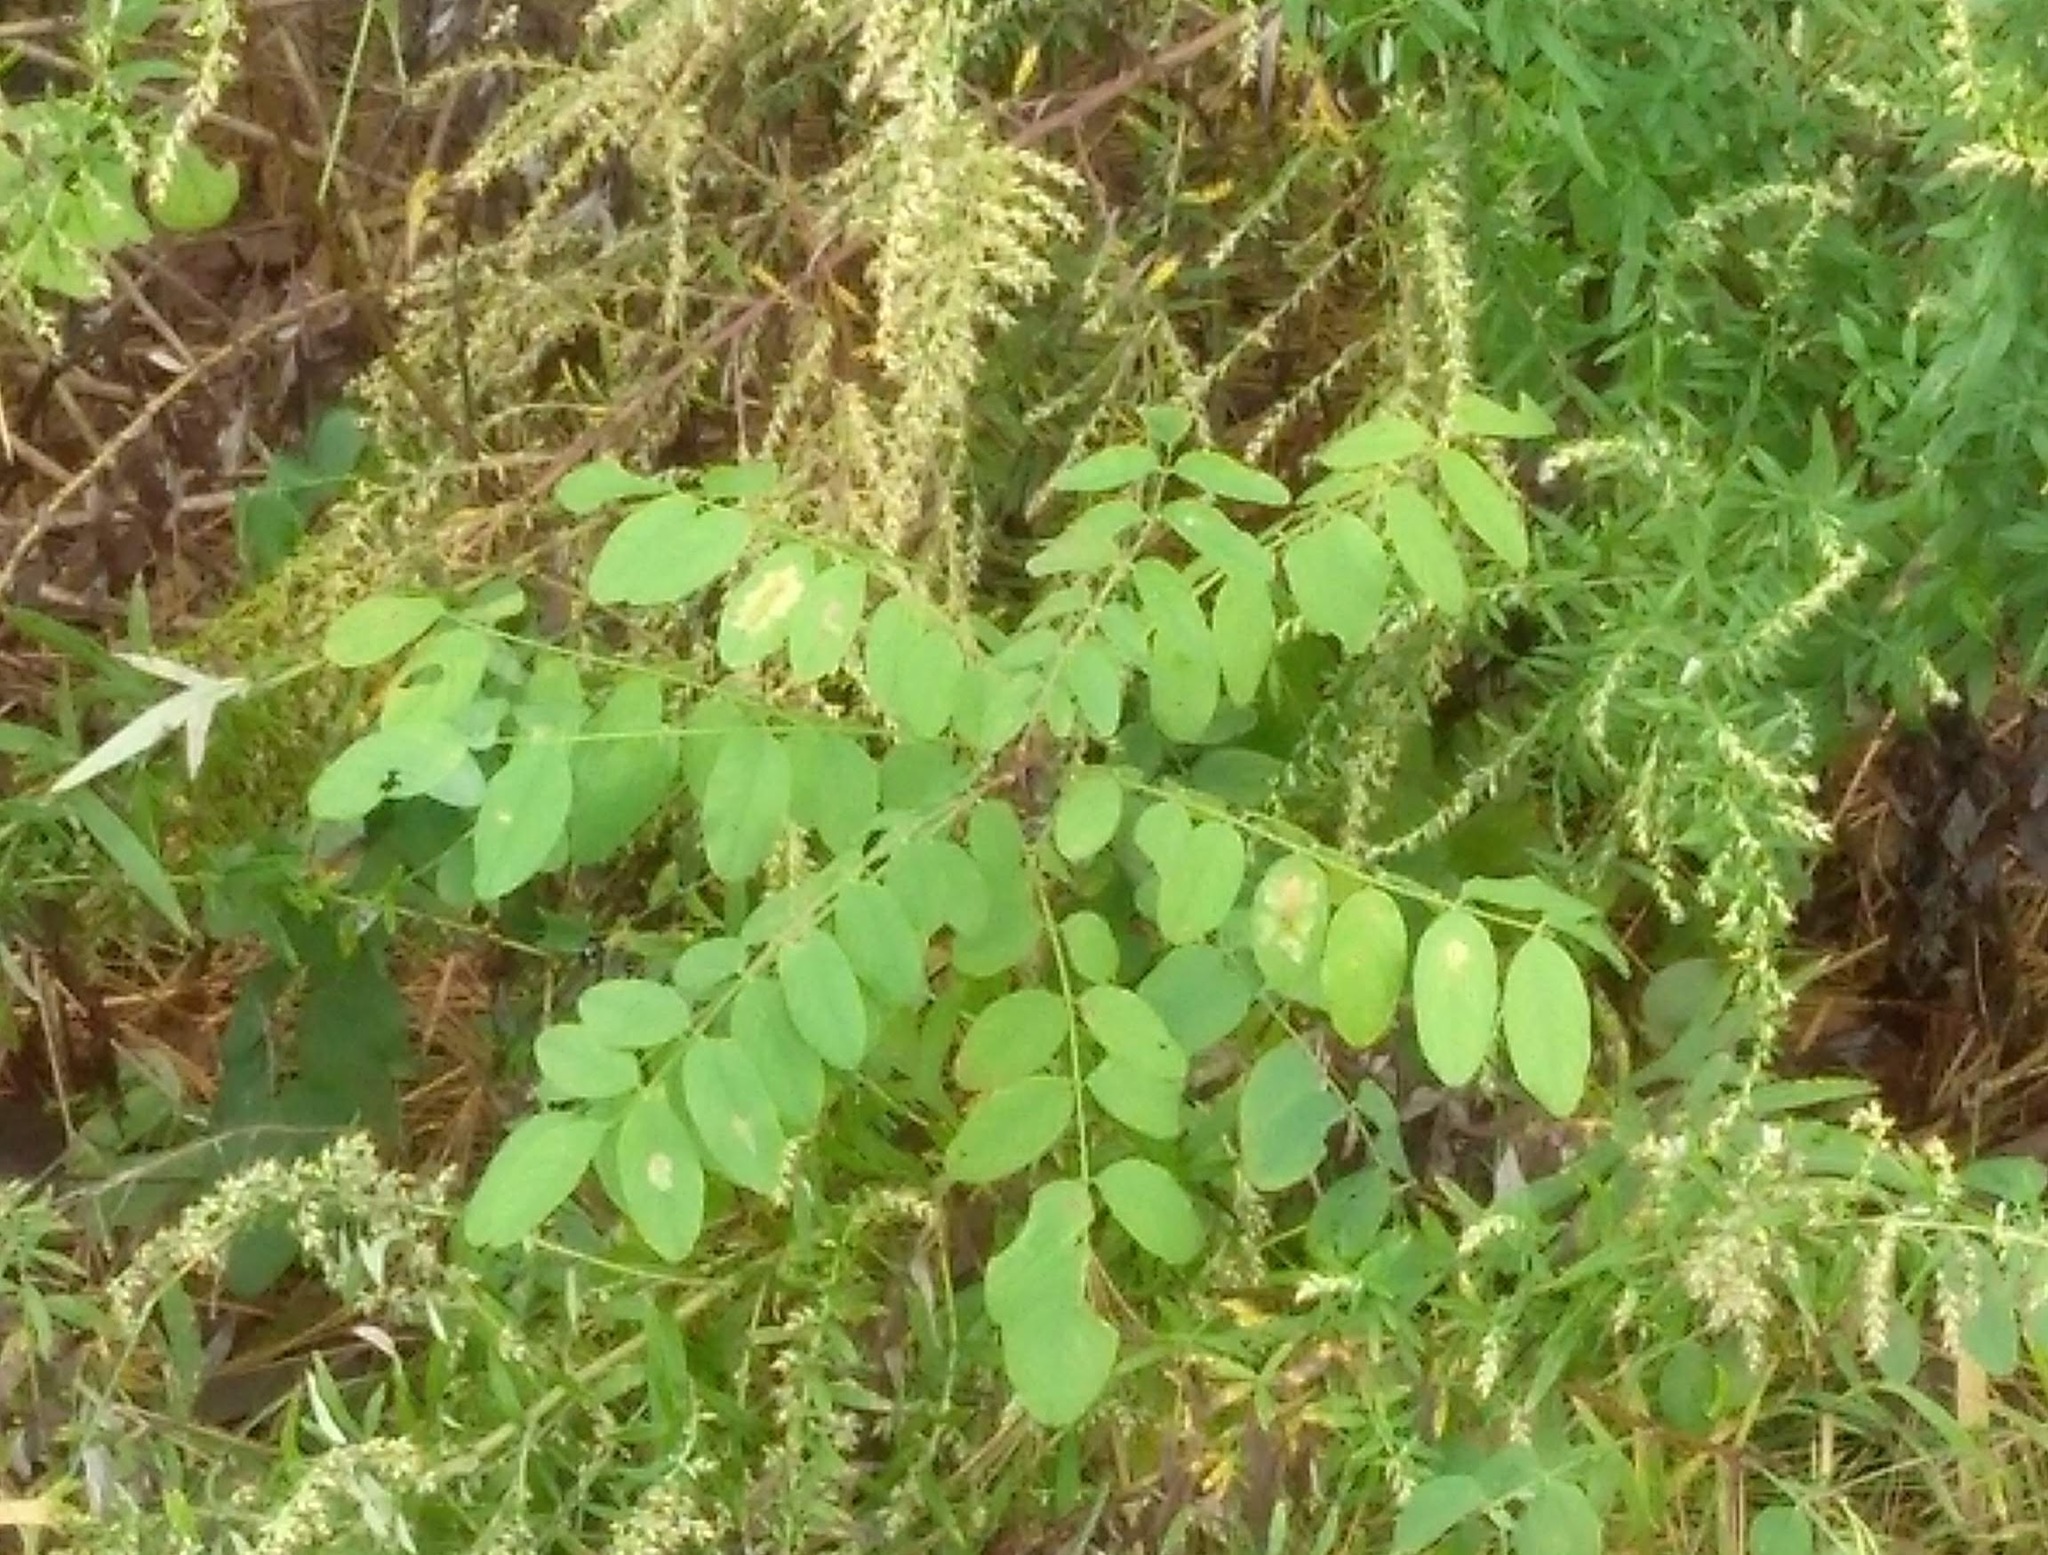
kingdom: Animalia
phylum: Arthropoda
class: Insecta
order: Lepidoptera
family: Gracillariidae
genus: Parectopa
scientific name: Parectopa robiniella
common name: Locust digitate leafminer
